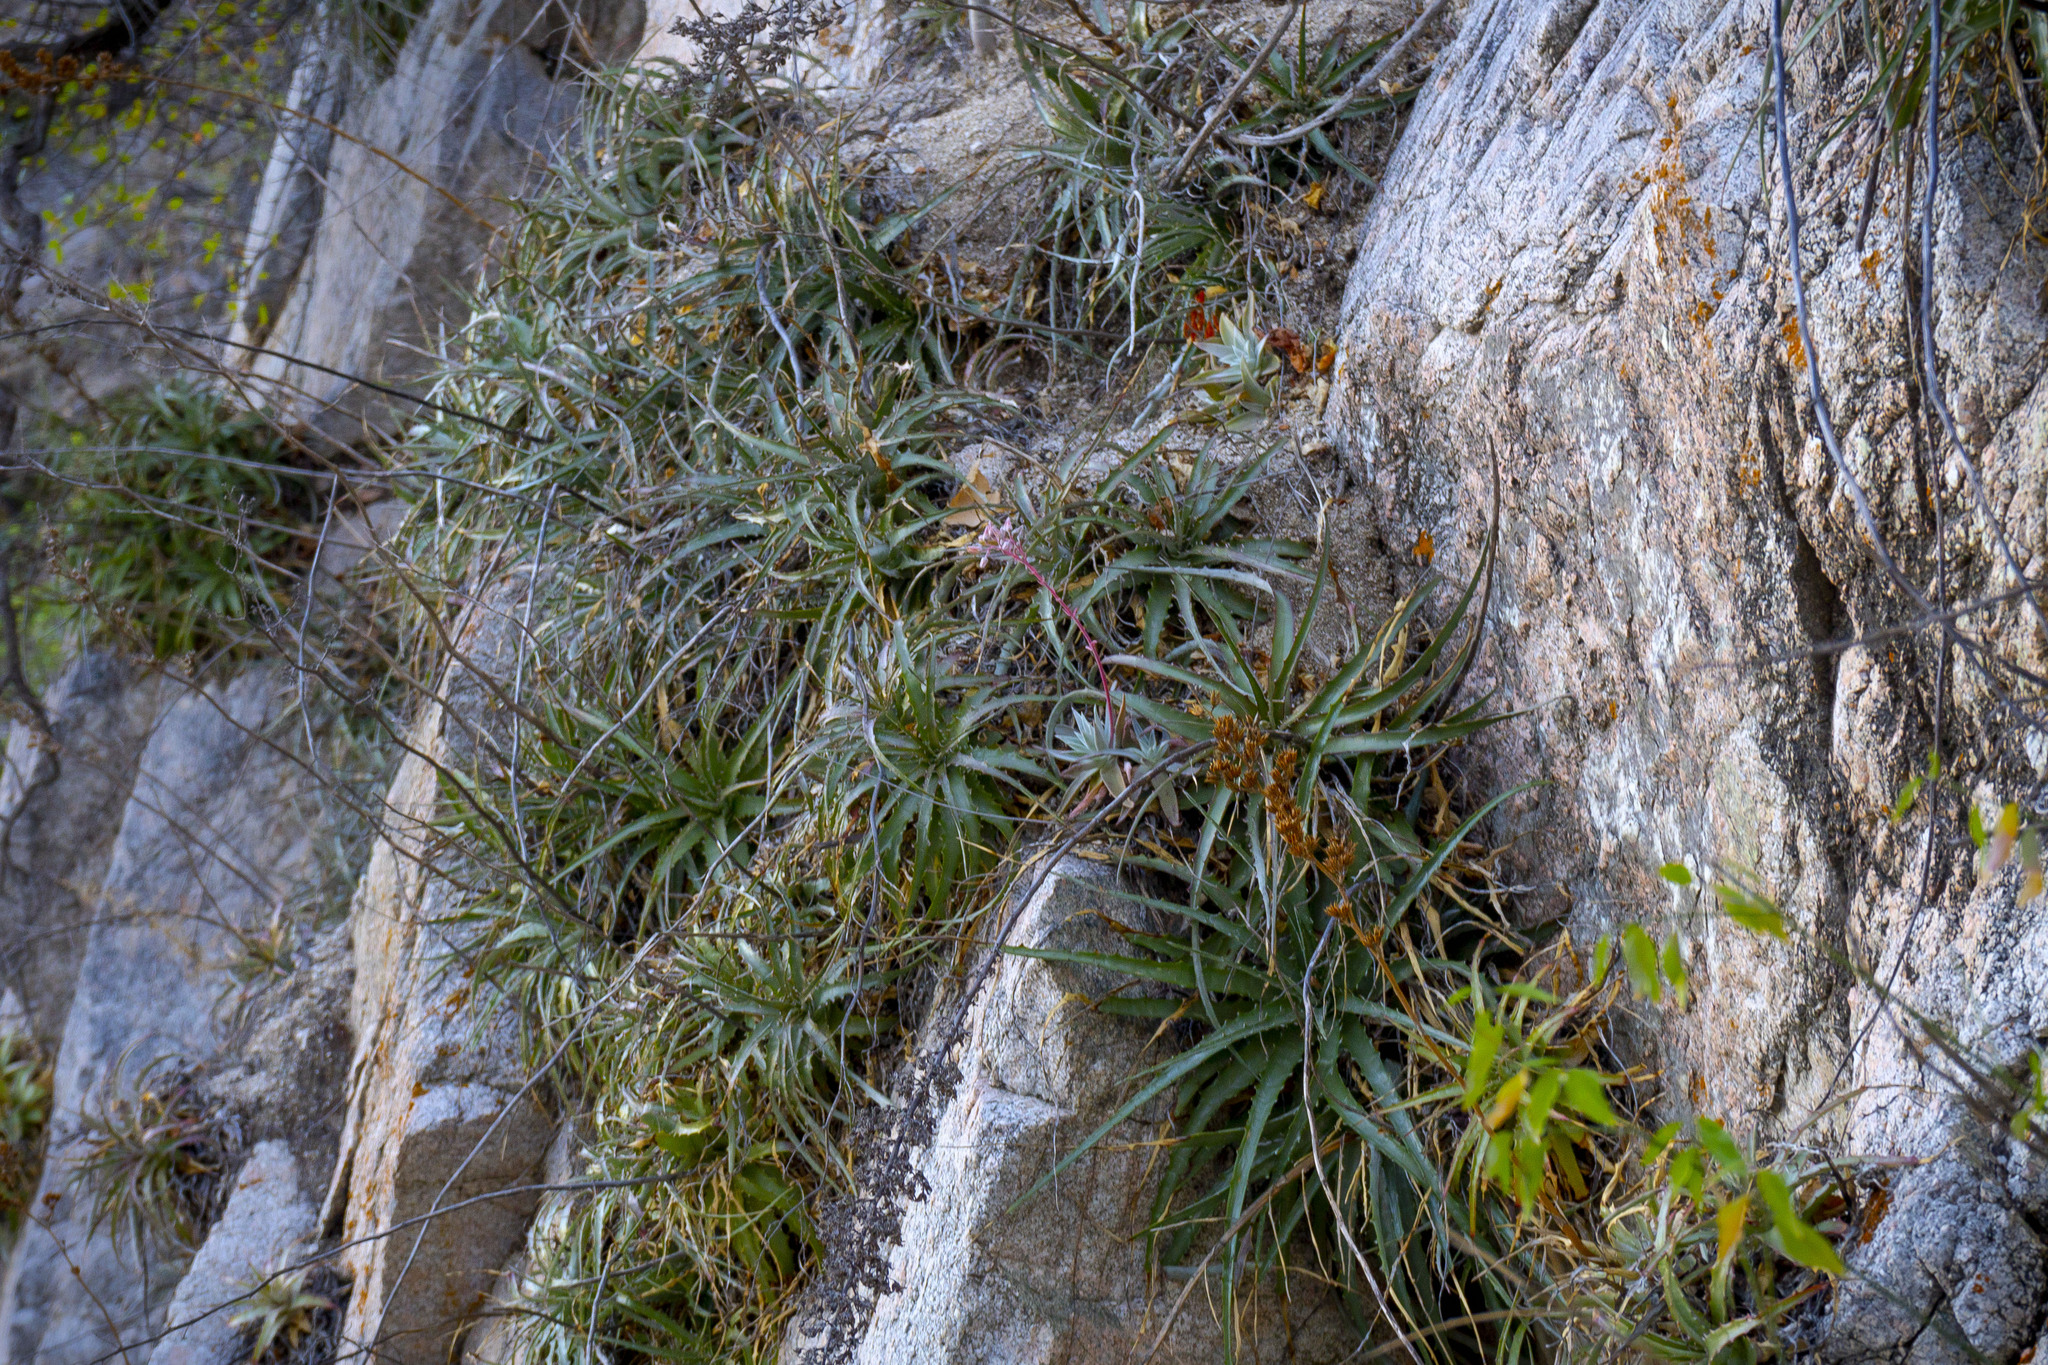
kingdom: Plantae
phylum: Tracheophyta
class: Magnoliopsida
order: Saxifragales
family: Crassulaceae
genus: Dudleya
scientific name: Dudleya nubigena
